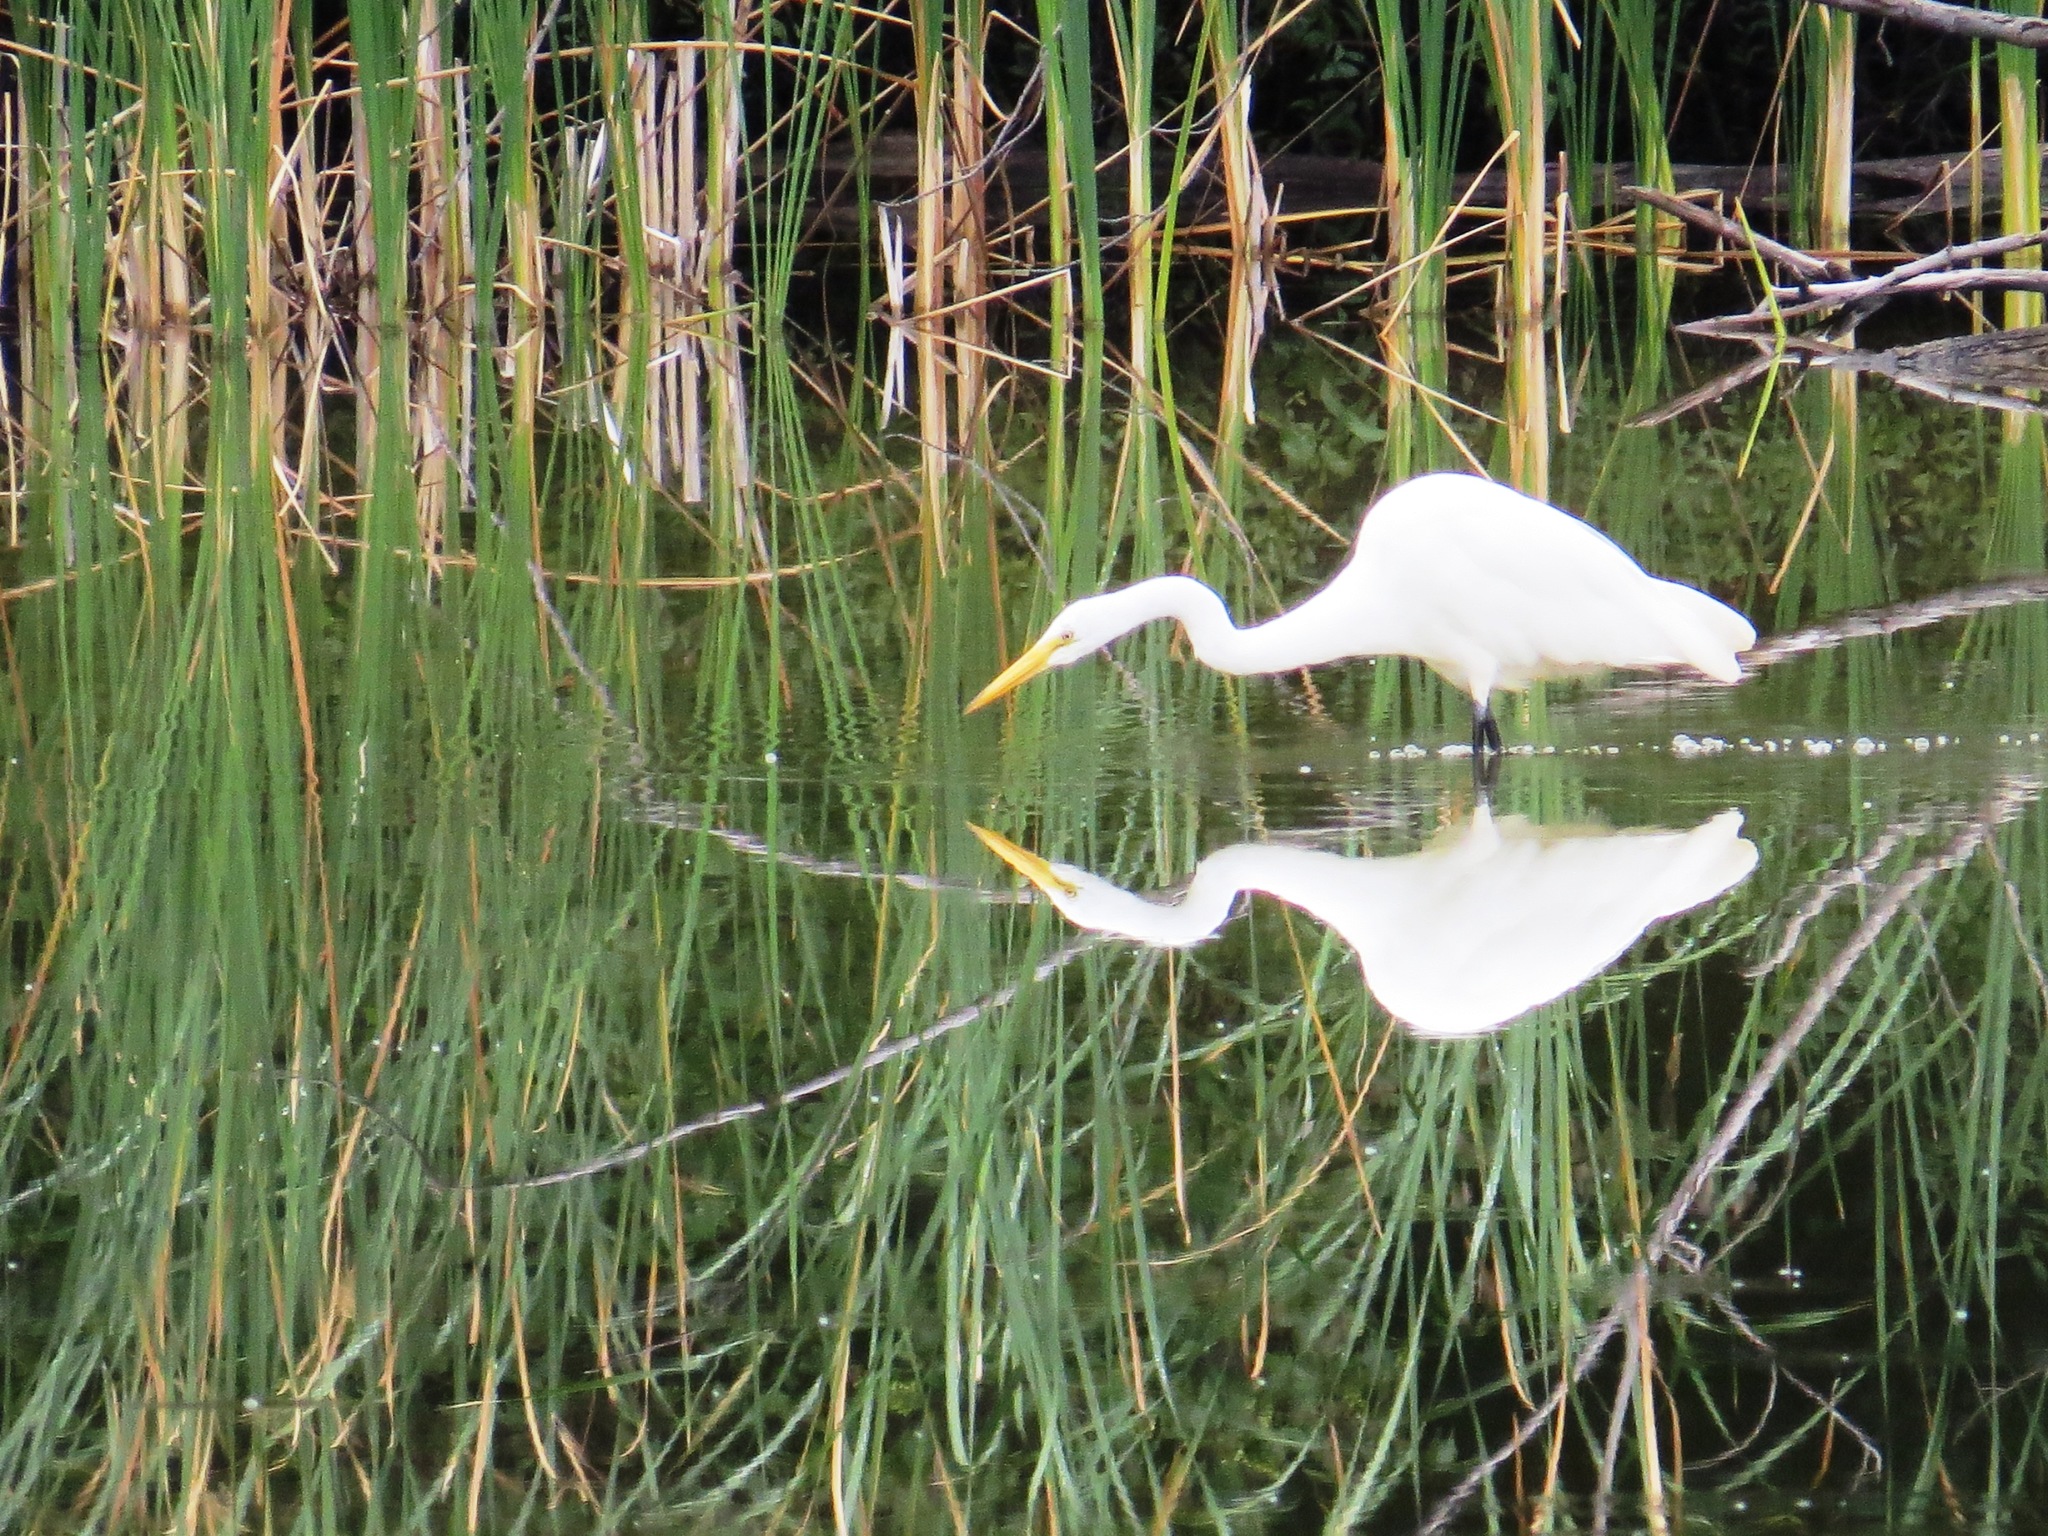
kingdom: Animalia
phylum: Chordata
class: Aves
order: Pelecaniformes
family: Ardeidae
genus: Ardea
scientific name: Ardea alba
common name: Great egret
